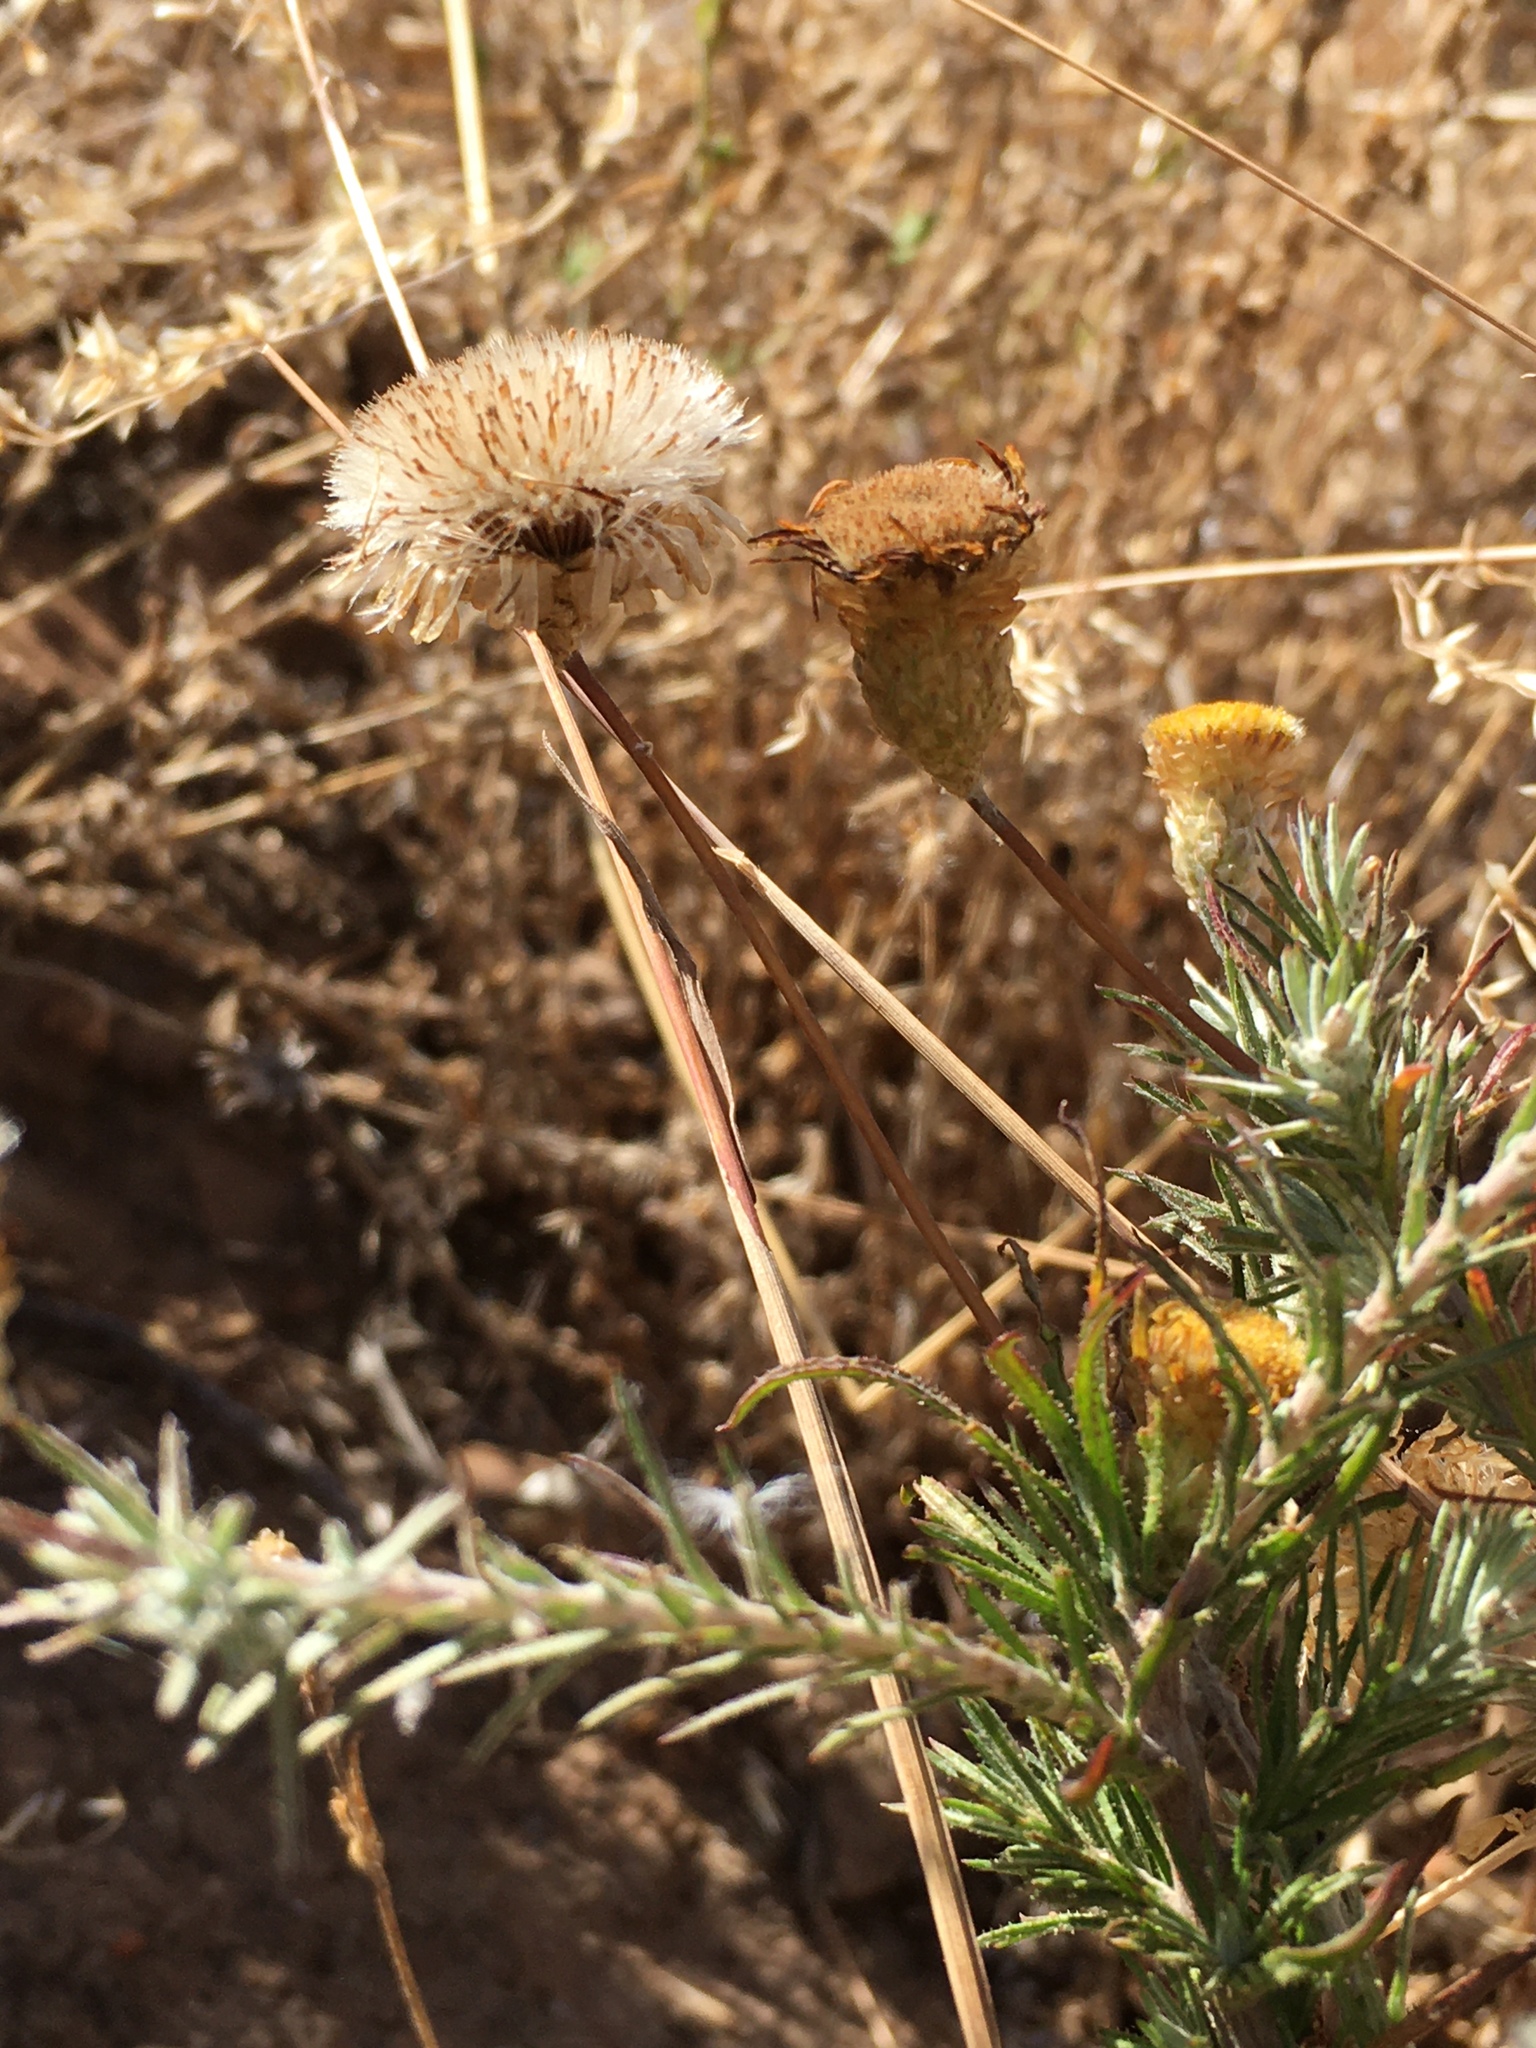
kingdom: Plantae
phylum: Tracheophyta
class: Magnoliopsida
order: Asterales
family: Asteraceae
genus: Leysera
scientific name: Leysera gnaphalodes
